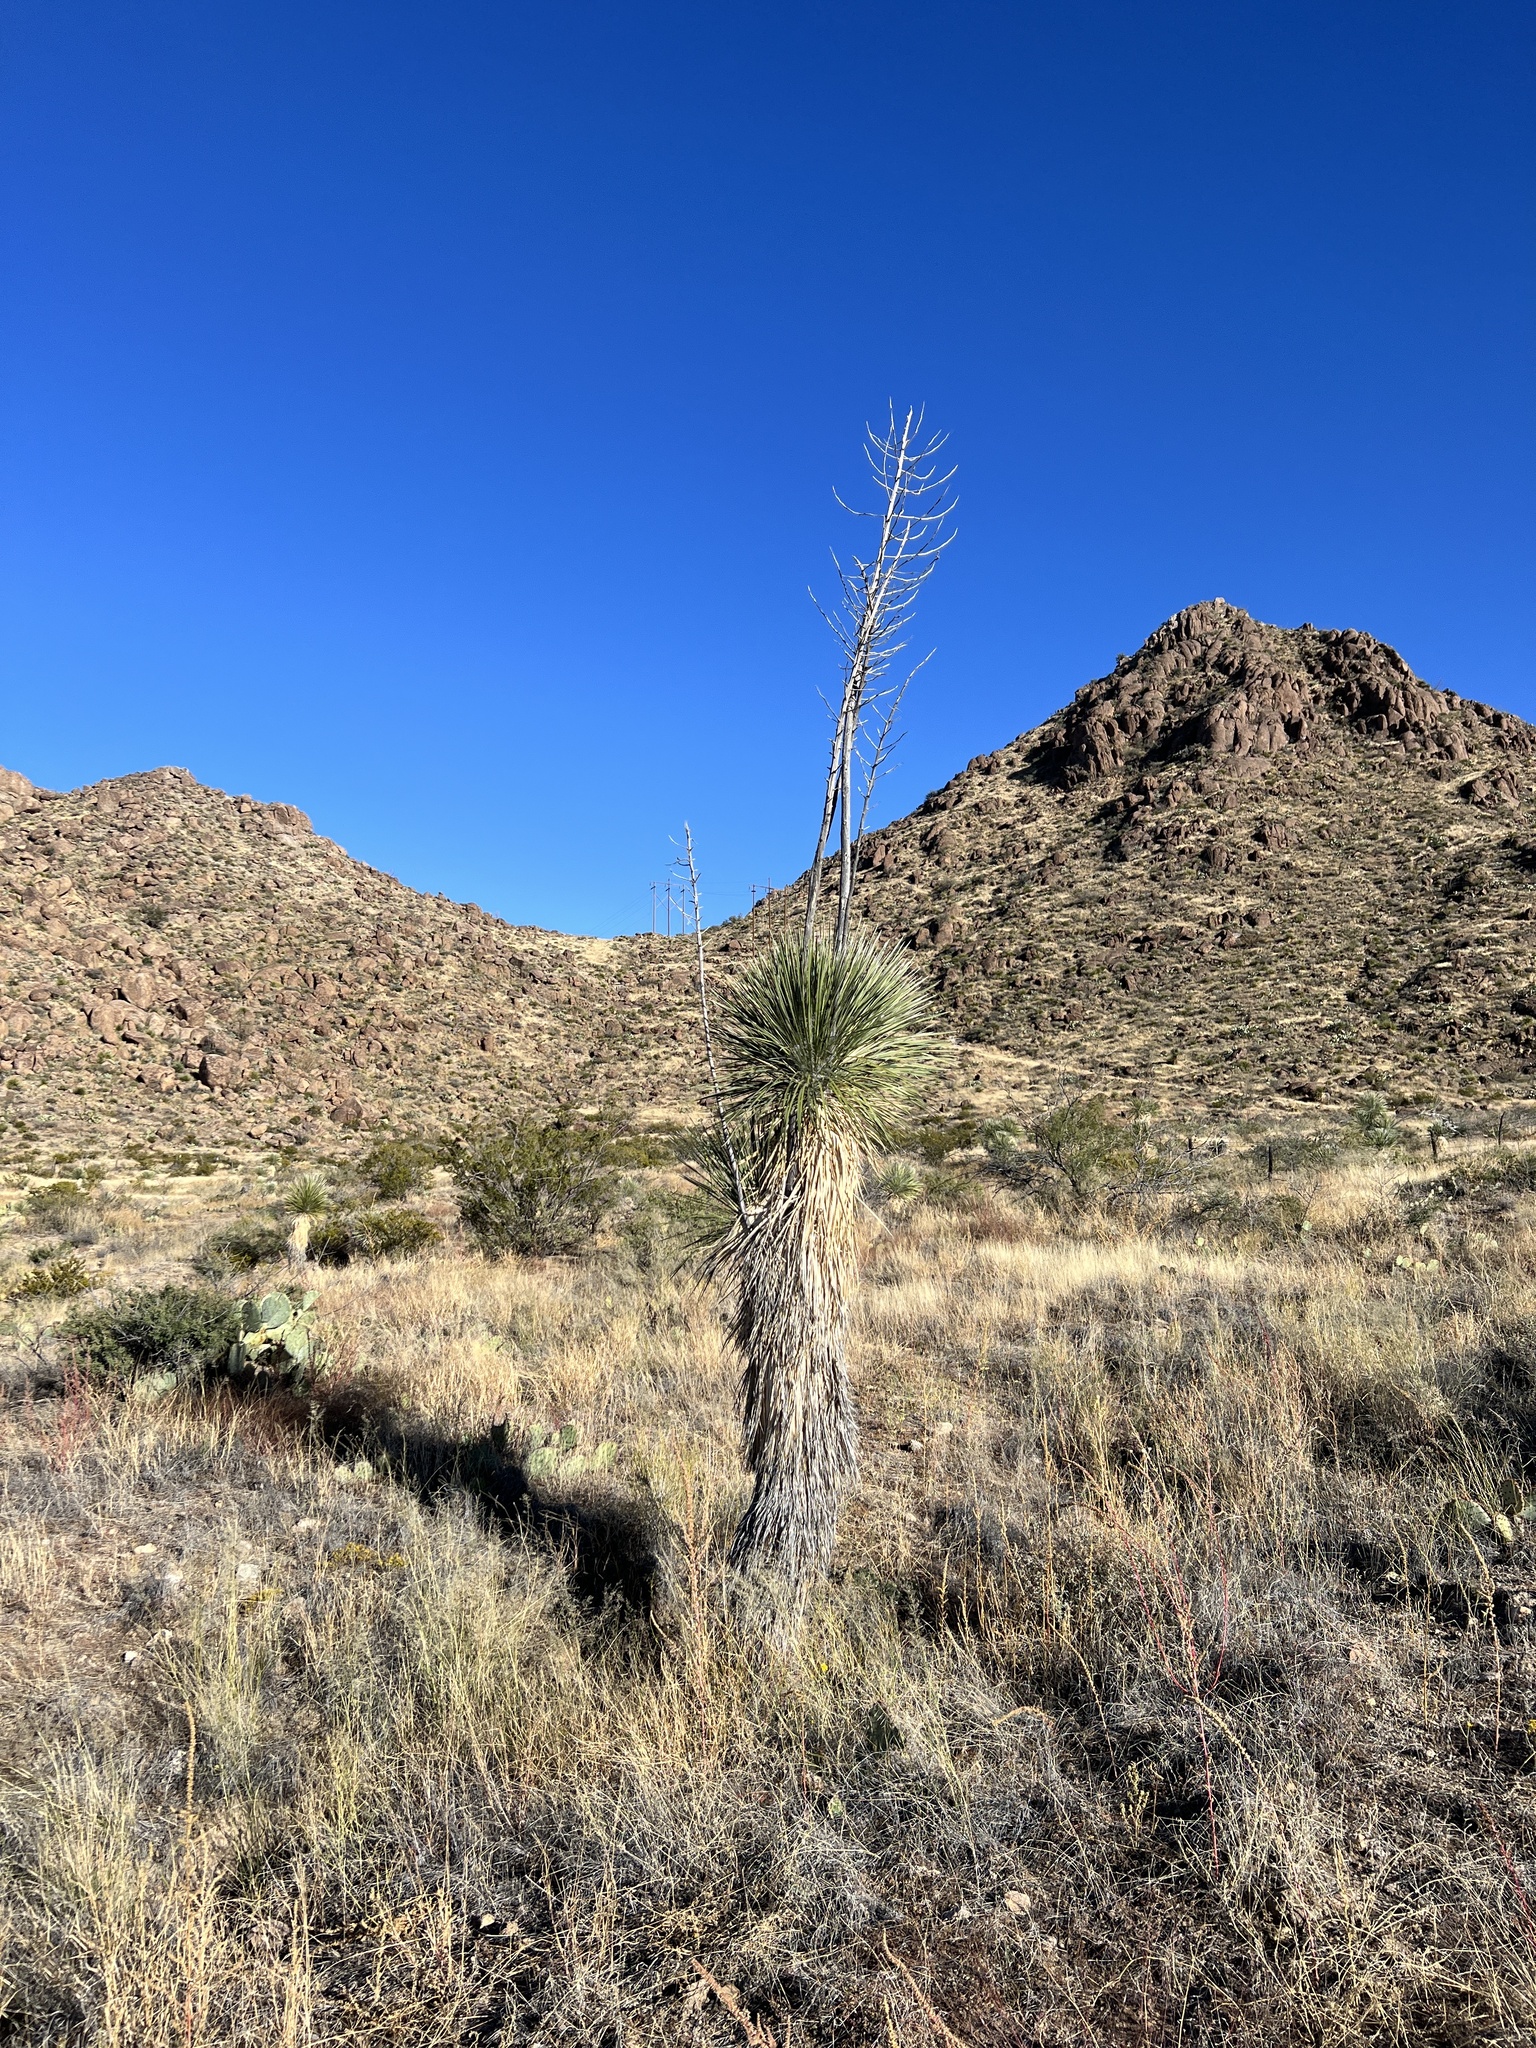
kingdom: Plantae
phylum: Tracheophyta
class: Liliopsida
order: Asparagales
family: Asparagaceae
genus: Yucca
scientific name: Yucca elata
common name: Palmella
